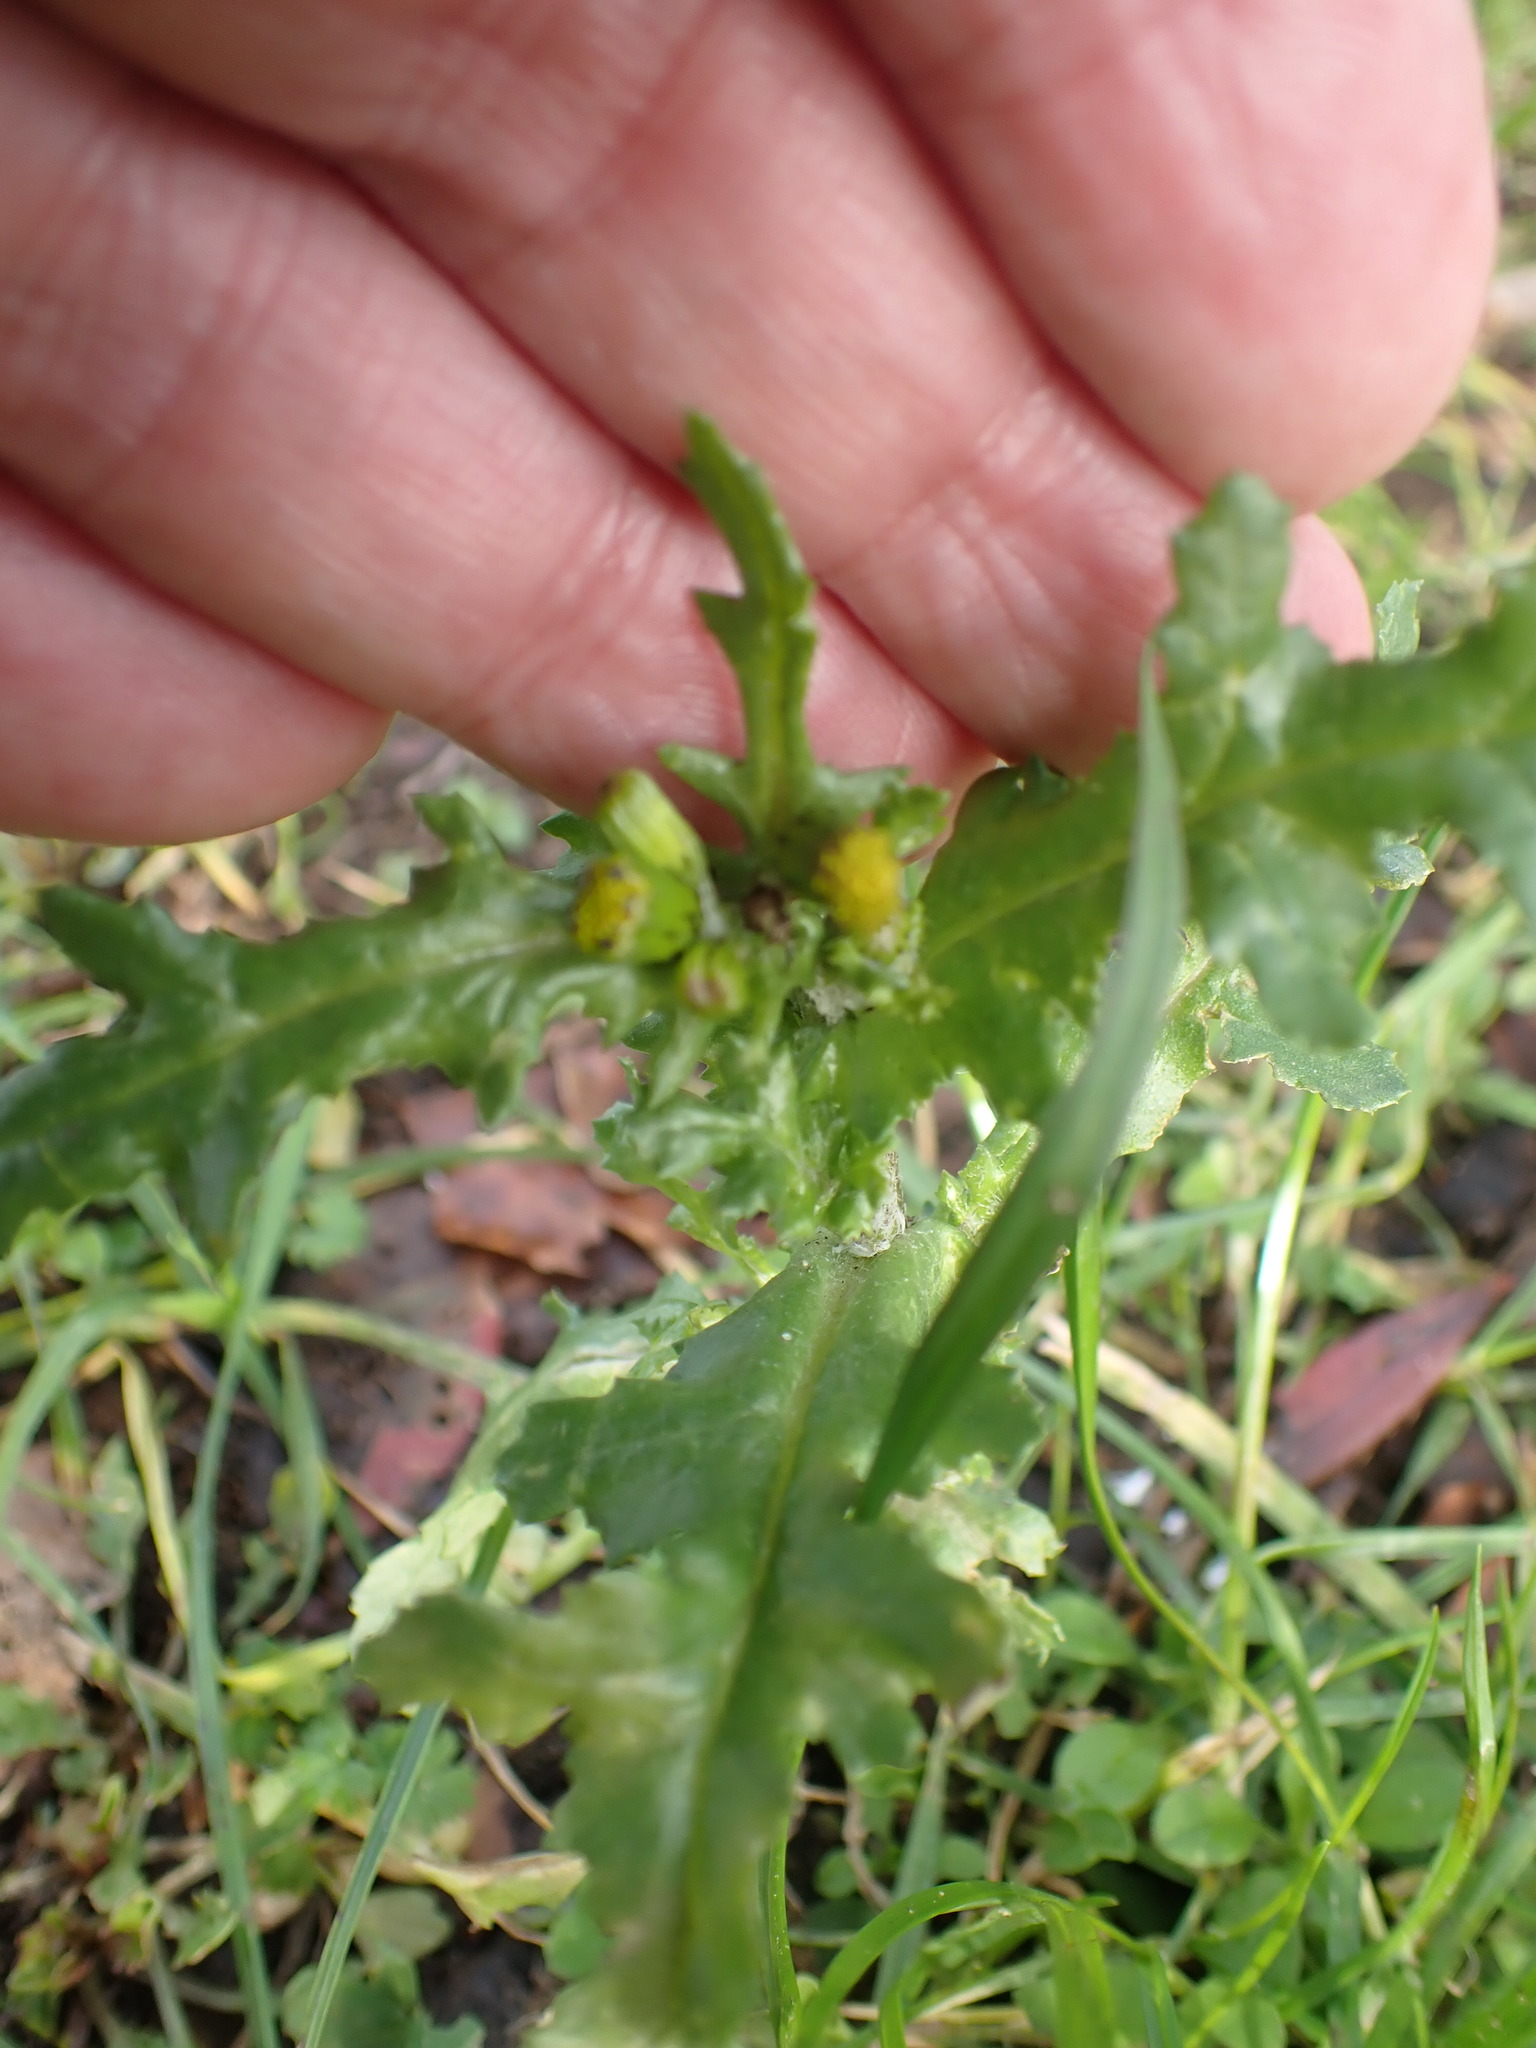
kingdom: Plantae
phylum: Tracheophyta
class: Magnoliopsida
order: Asterales
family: Asteraceae
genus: Senecio
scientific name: Senecio vulgaris
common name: Old-man-in-the-spring
